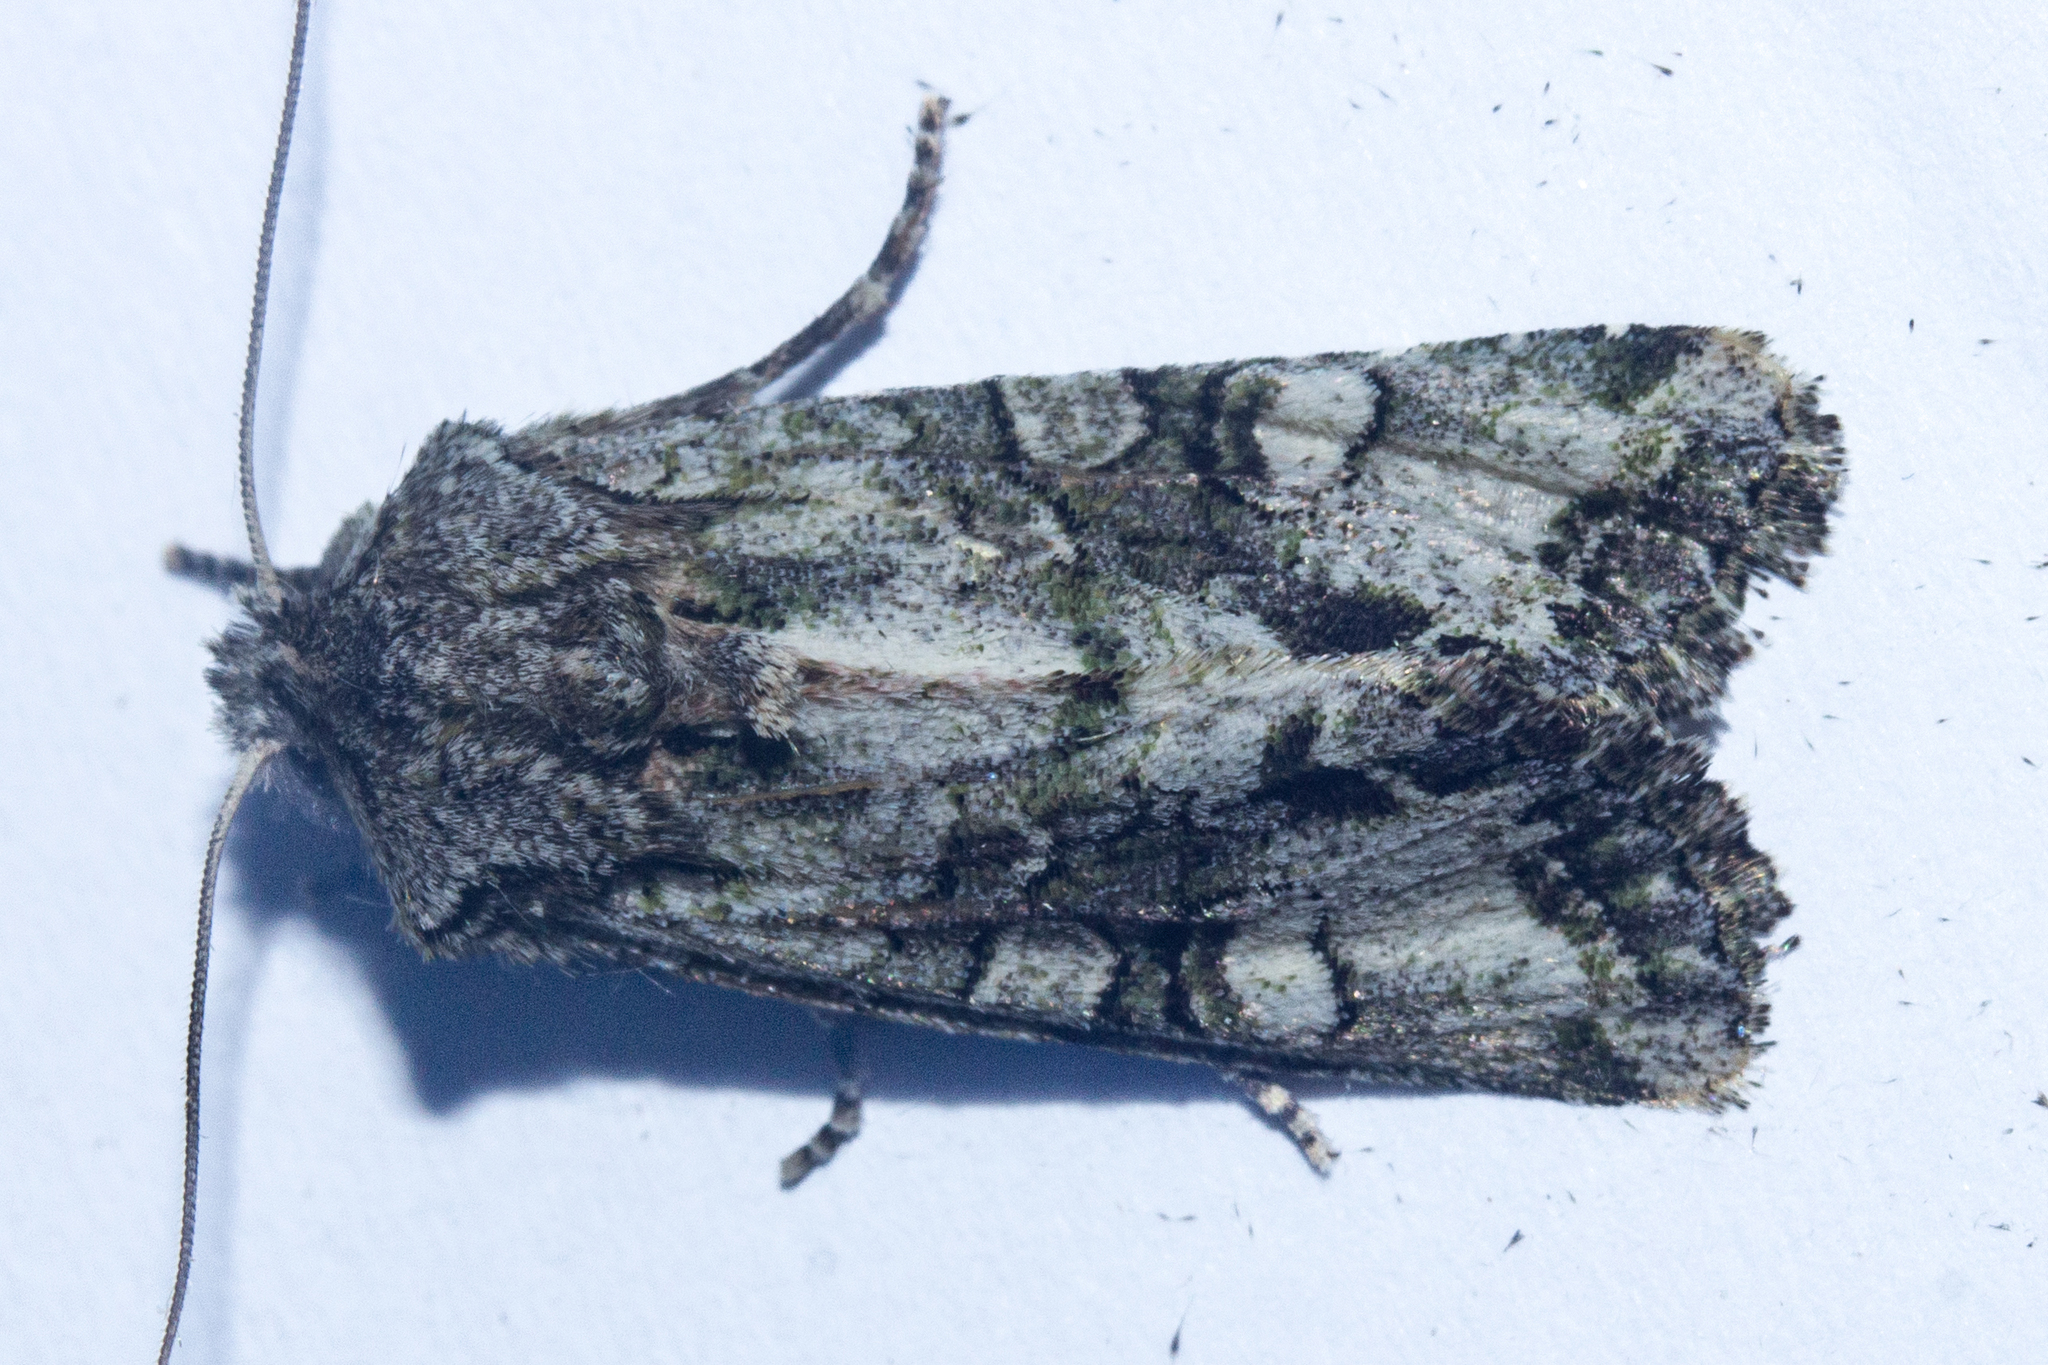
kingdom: Animalia
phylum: Arthropoda
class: Insecta
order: Lepidoptera
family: Noctuidae
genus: Ichneutica
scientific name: Ichneutica skelloni
